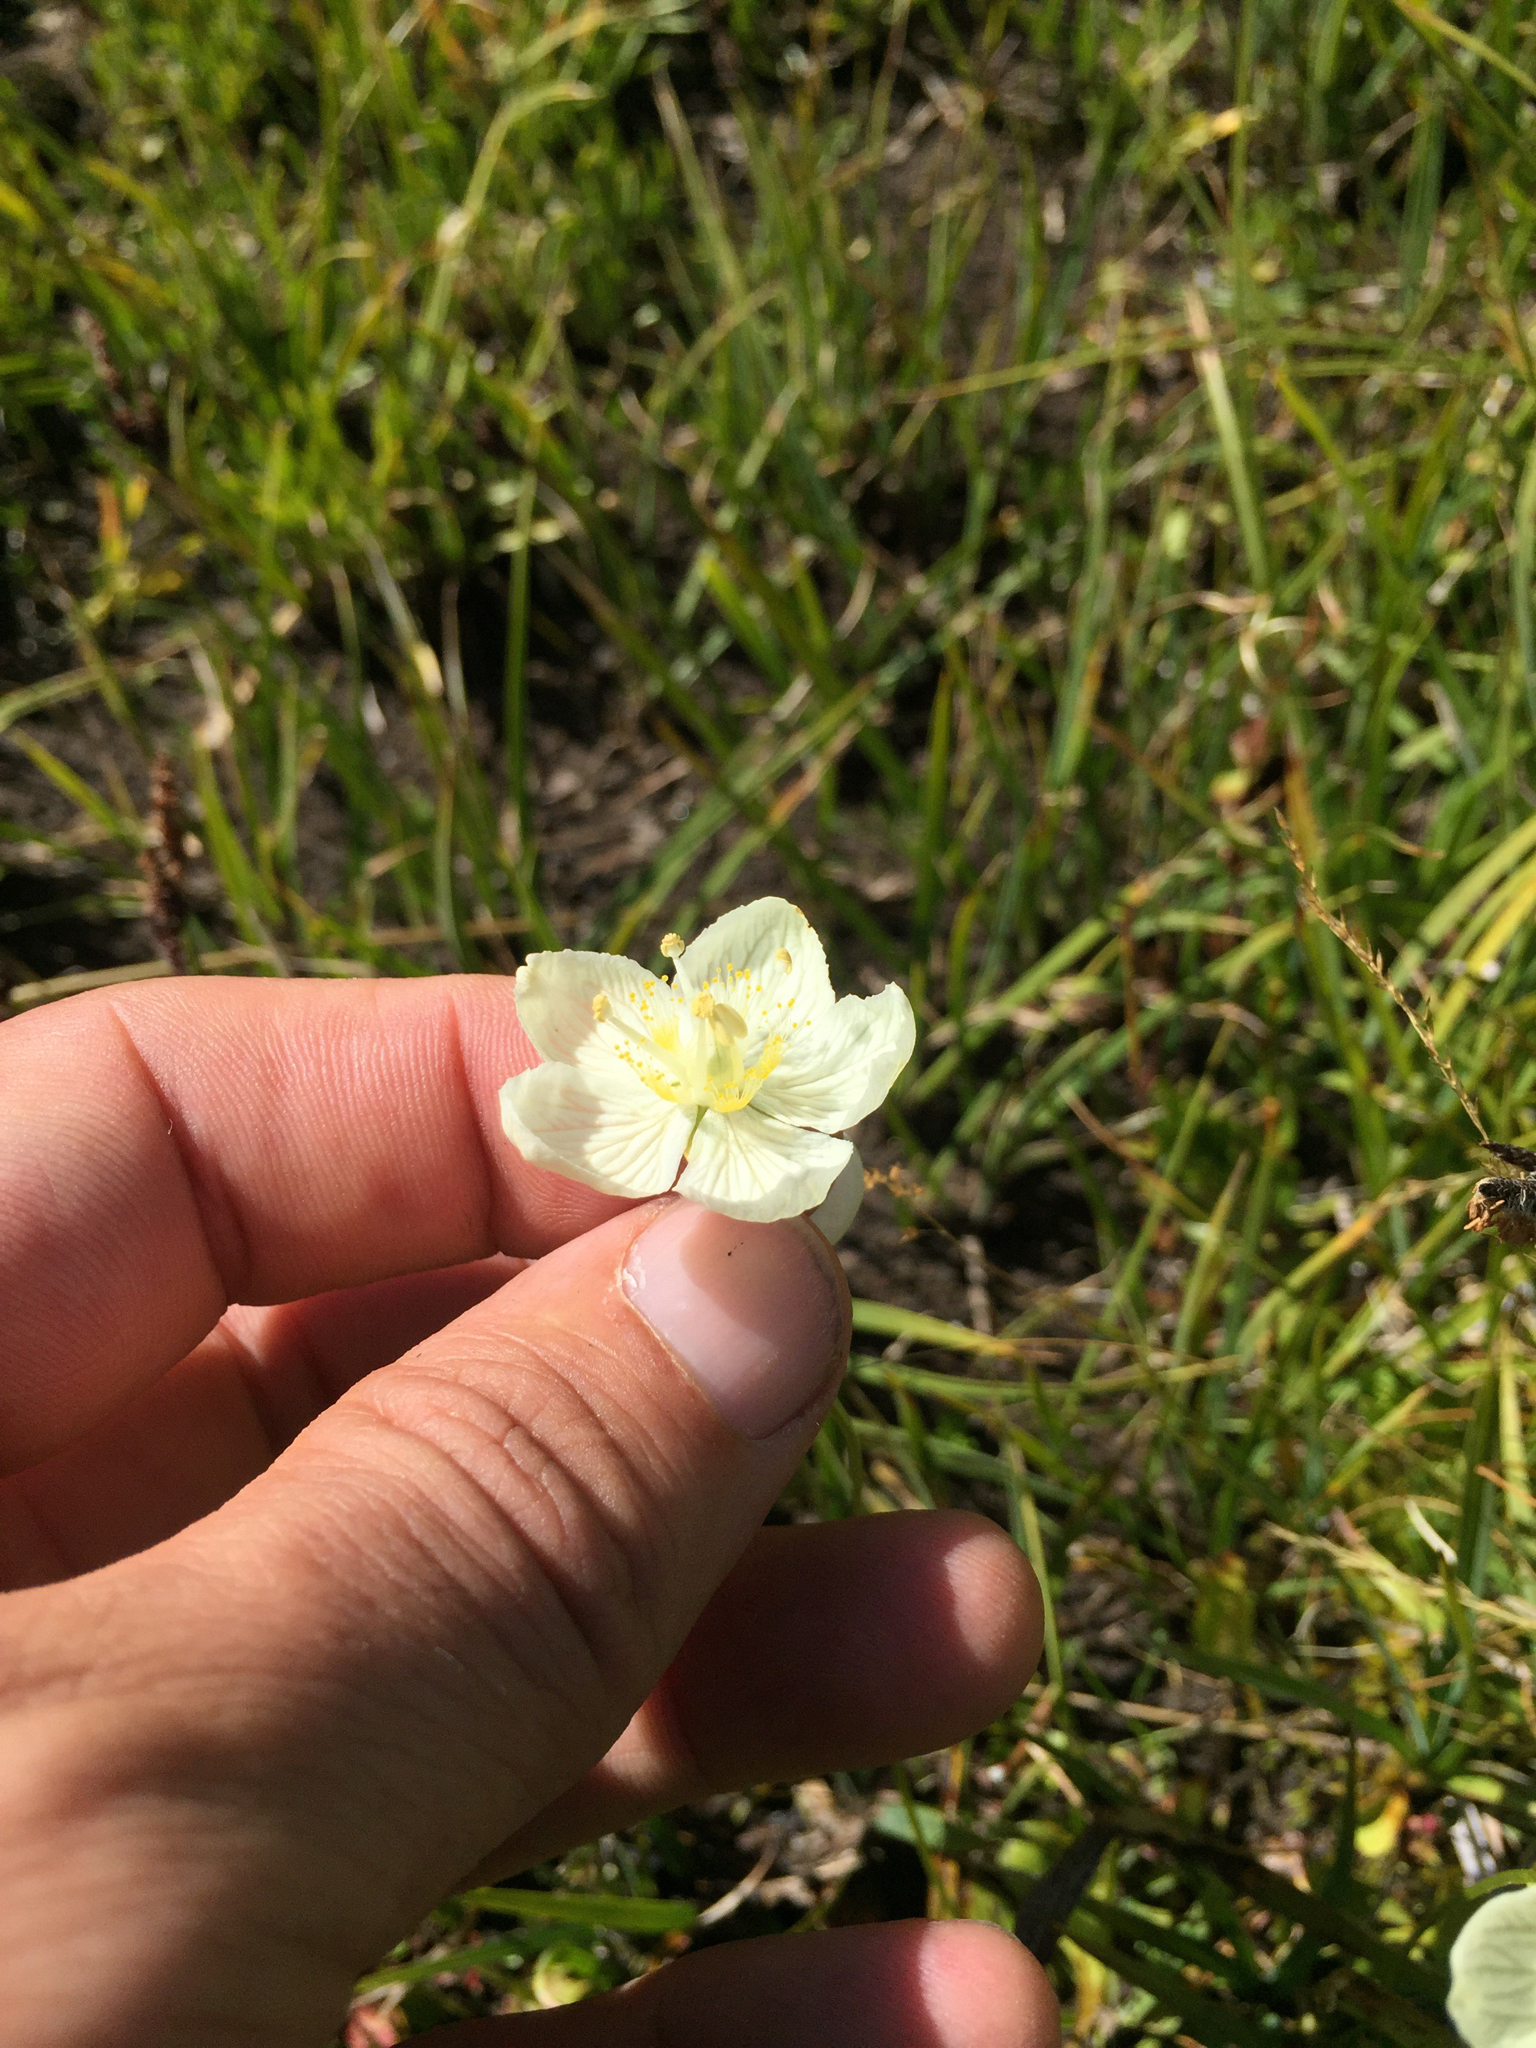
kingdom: Plantae
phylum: Tracheophyta
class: Magnoliopsida
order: Celastrales
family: Parnassiaceae
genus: Parnassia
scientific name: Parnassia palustris
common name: Grass-of-parnassus
